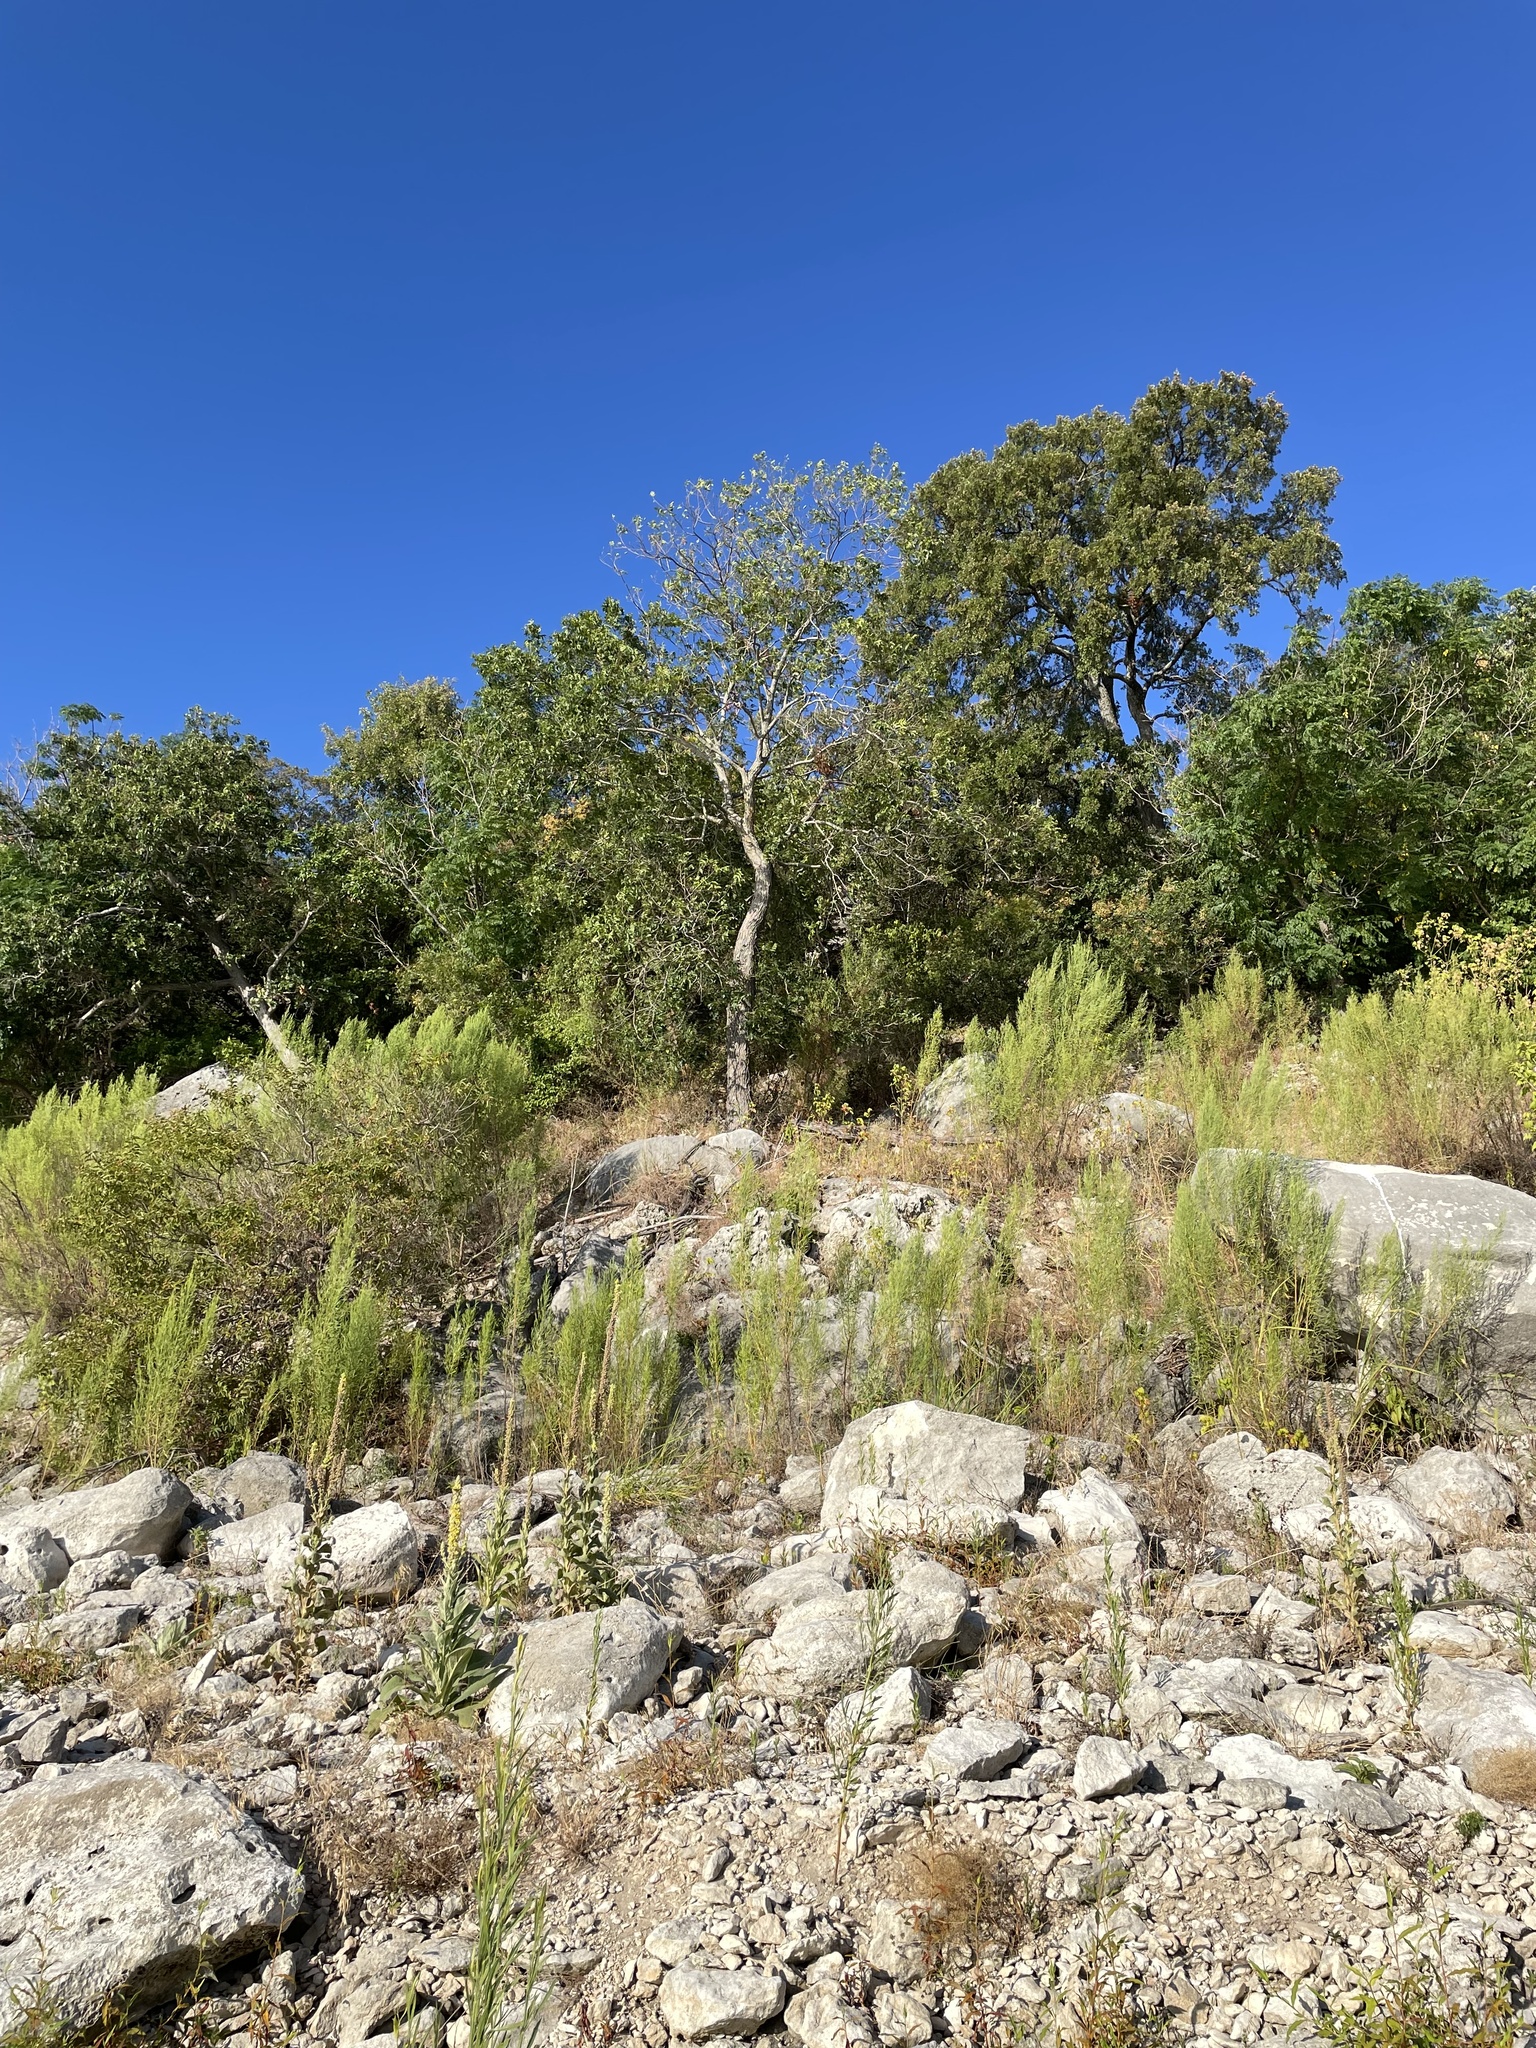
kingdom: Plantae
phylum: Tracheophyta
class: Magnoliopsida
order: Fagales
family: Juglandaceae
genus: Carya
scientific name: Carya illinoinensis
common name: Pecan
